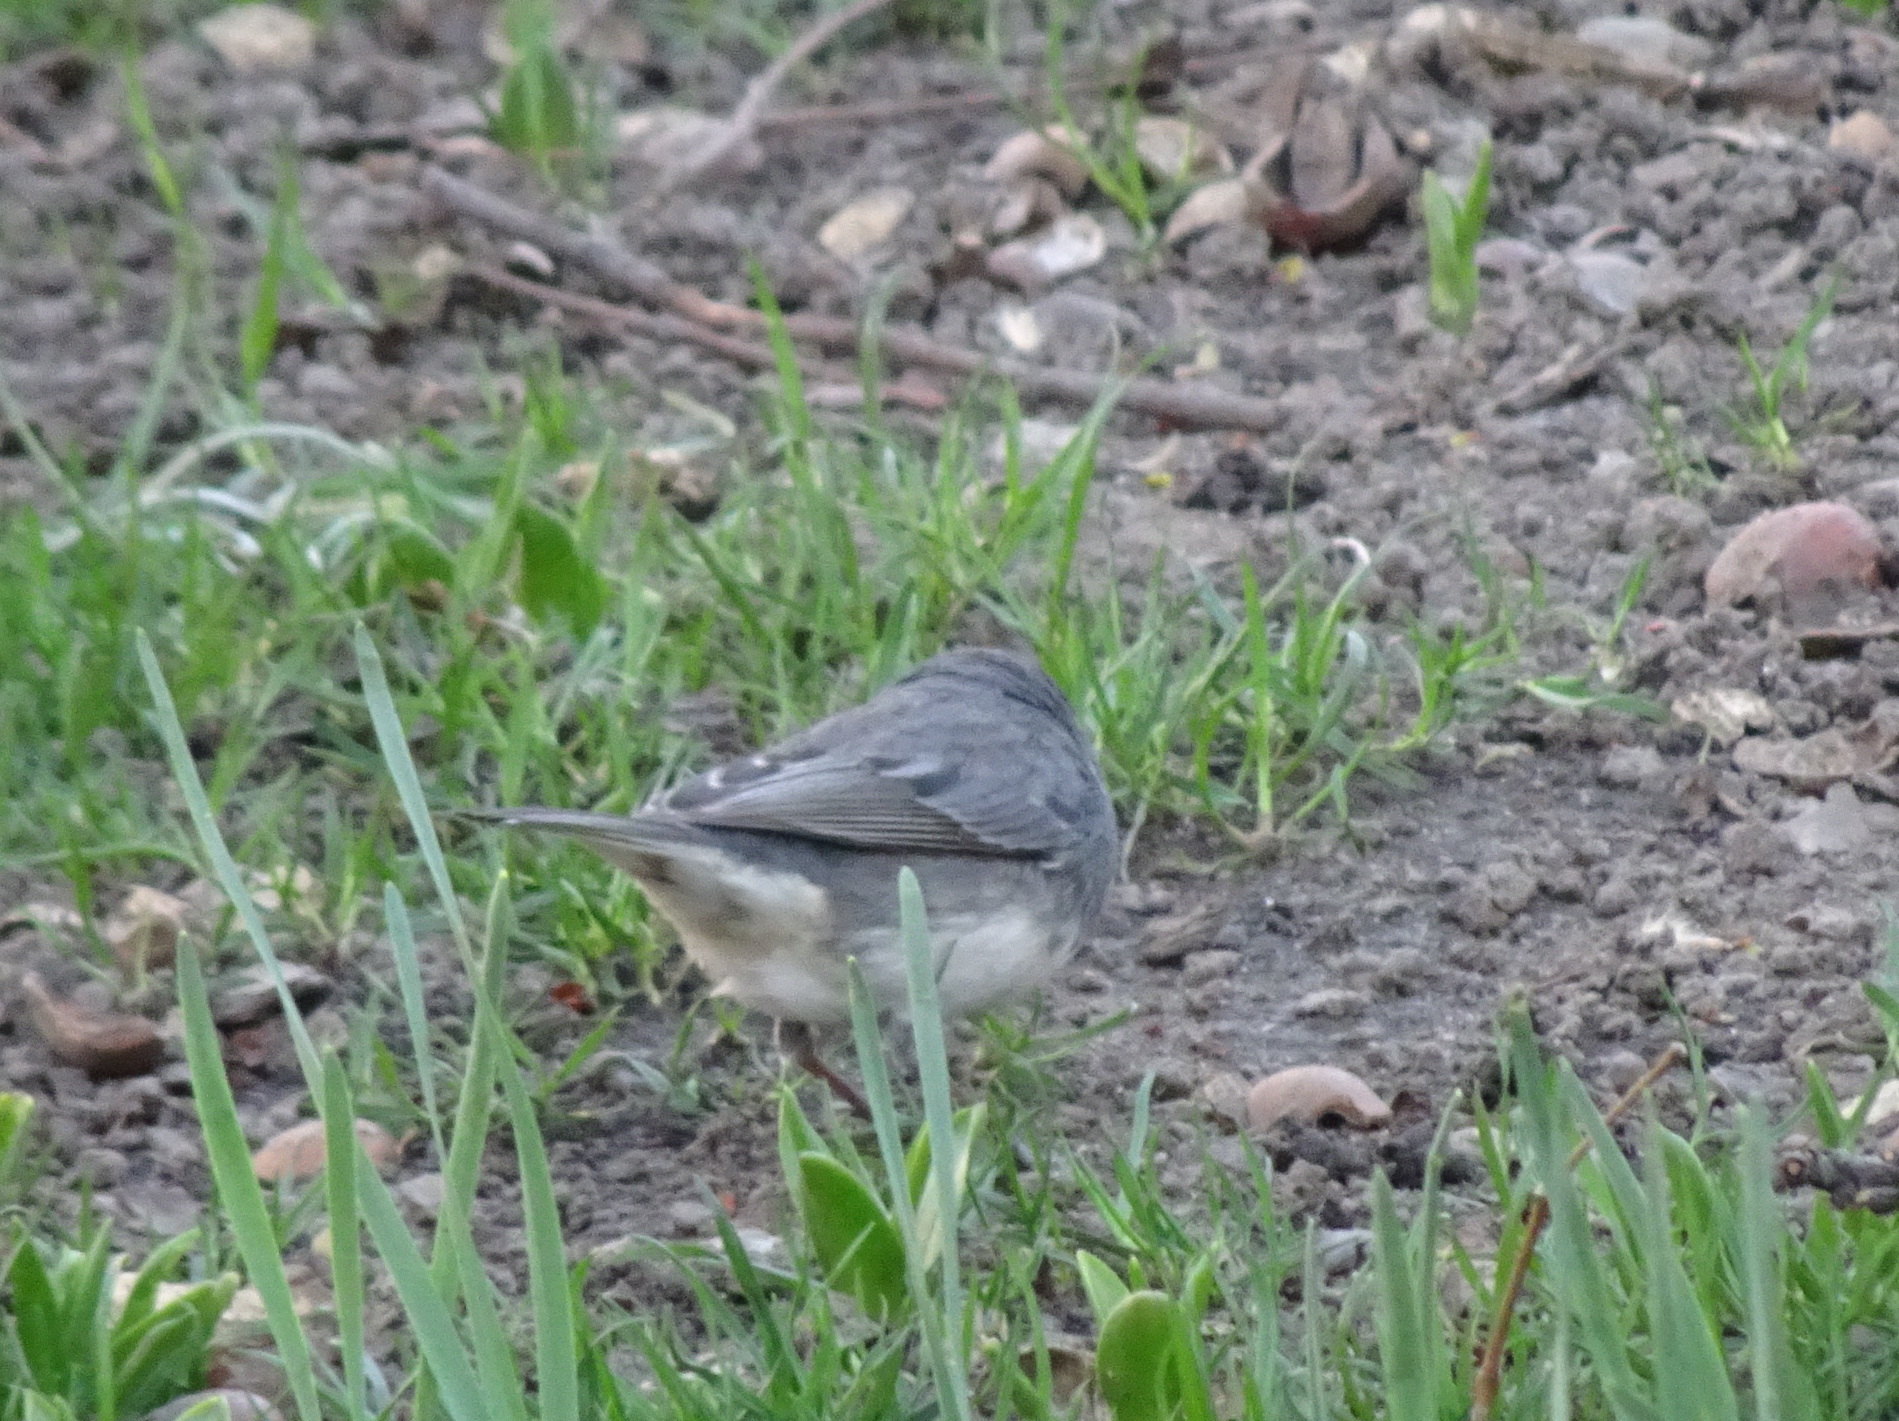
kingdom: Animalia
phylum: Chordata
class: Aves
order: Passeriformes
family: Passerellidae
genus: Junco
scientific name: Junco hyemalis
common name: Dark-eyed junco
